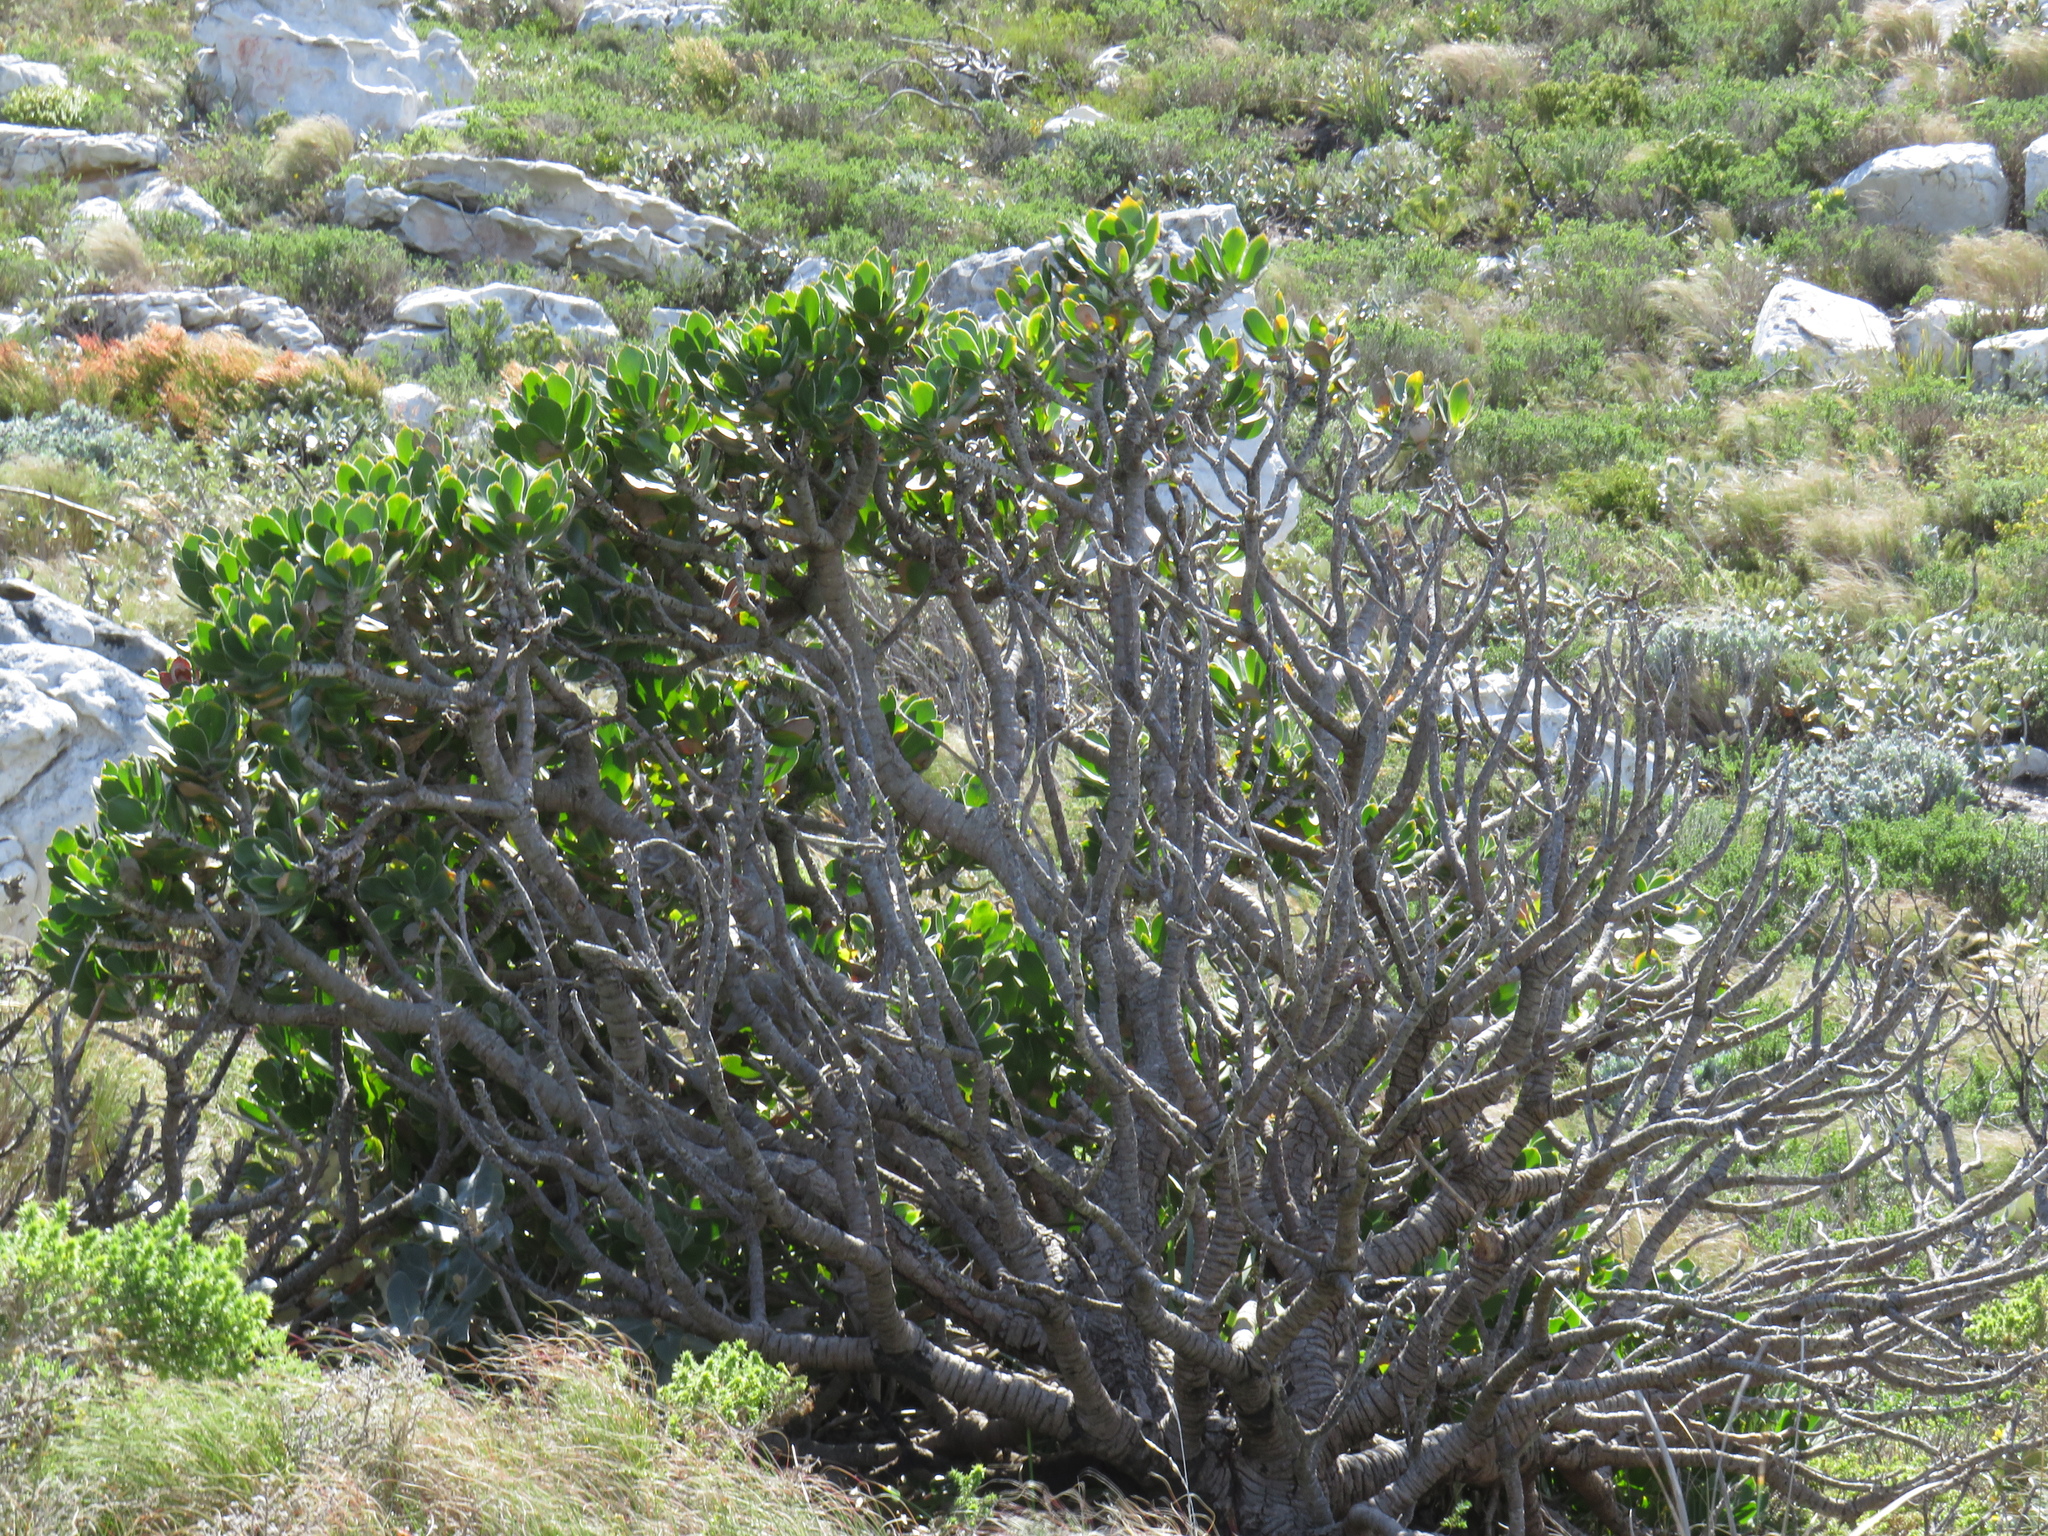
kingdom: Plantae
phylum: Tracheophyta
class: Magnoliopsida
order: Proteales
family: Proteaceae
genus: Leucospermum
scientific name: Leucospermum conocarpodendron
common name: Tree pincushion
